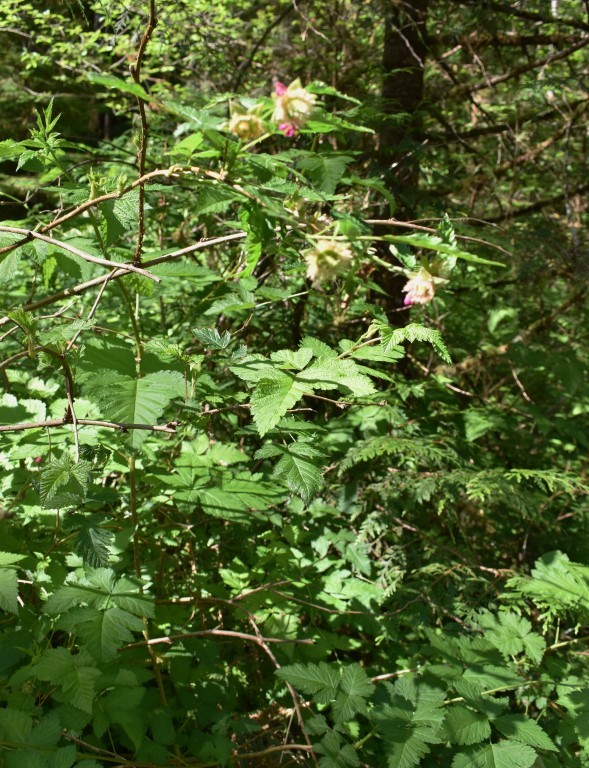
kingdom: Plantae
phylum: Tracheophyta
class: Magnoliopsida
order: Rosales
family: Rosaceae
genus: Rubus
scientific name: Rubus spectabilis
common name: Salmonberry
